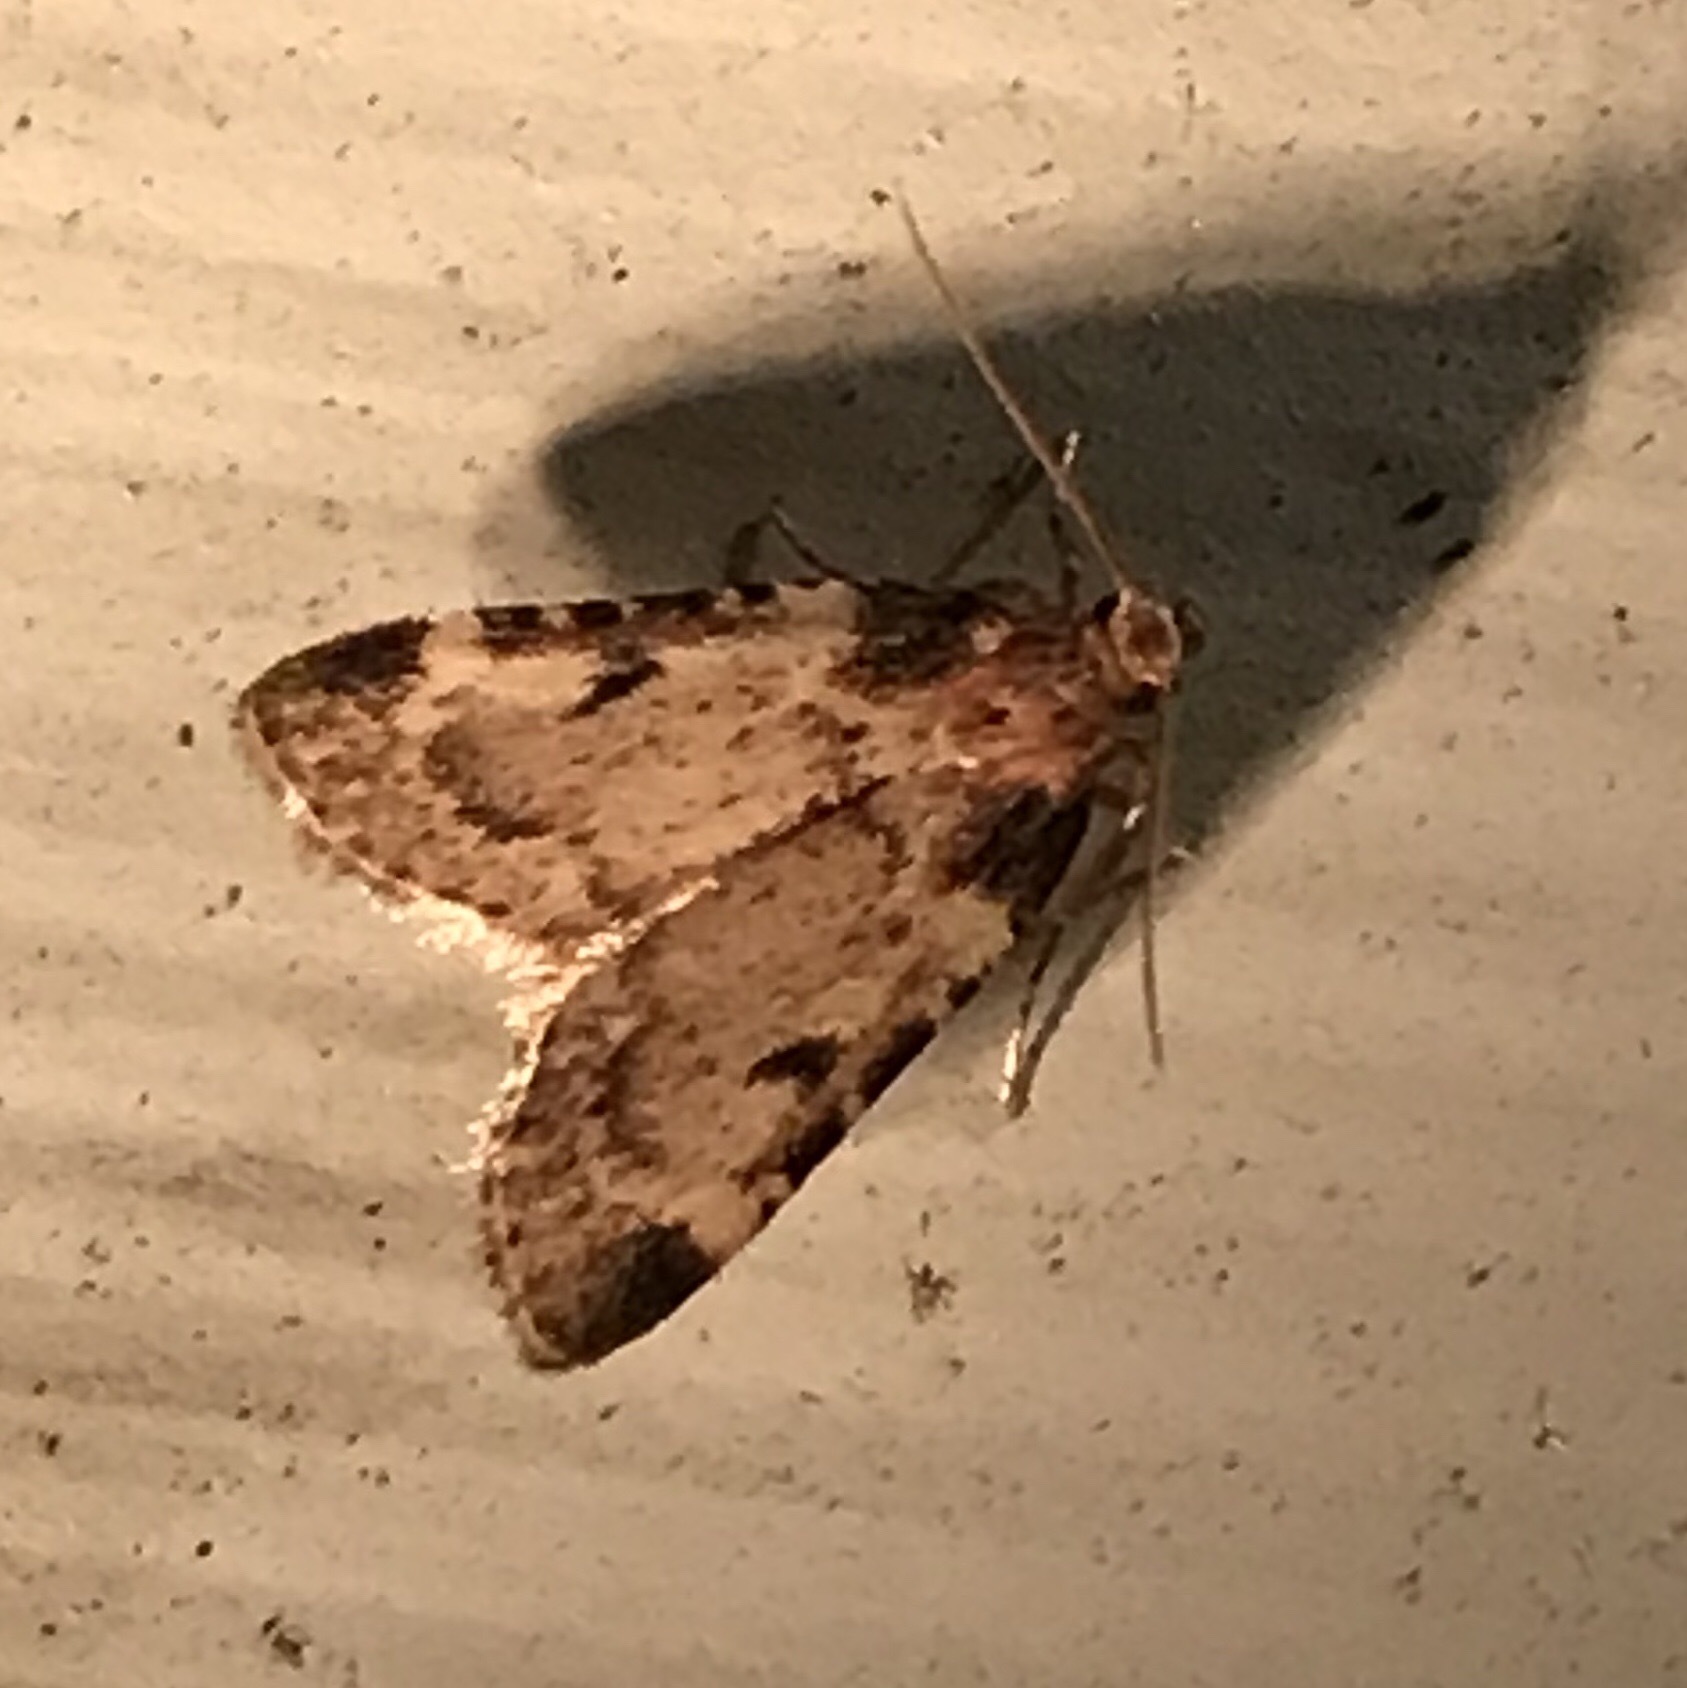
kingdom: Animalia
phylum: Arthropoda
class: Insecta
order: Lepidoptera
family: Pyralidae
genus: Aglossa
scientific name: Aglossa costiferalis
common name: Calico pyralid moth
